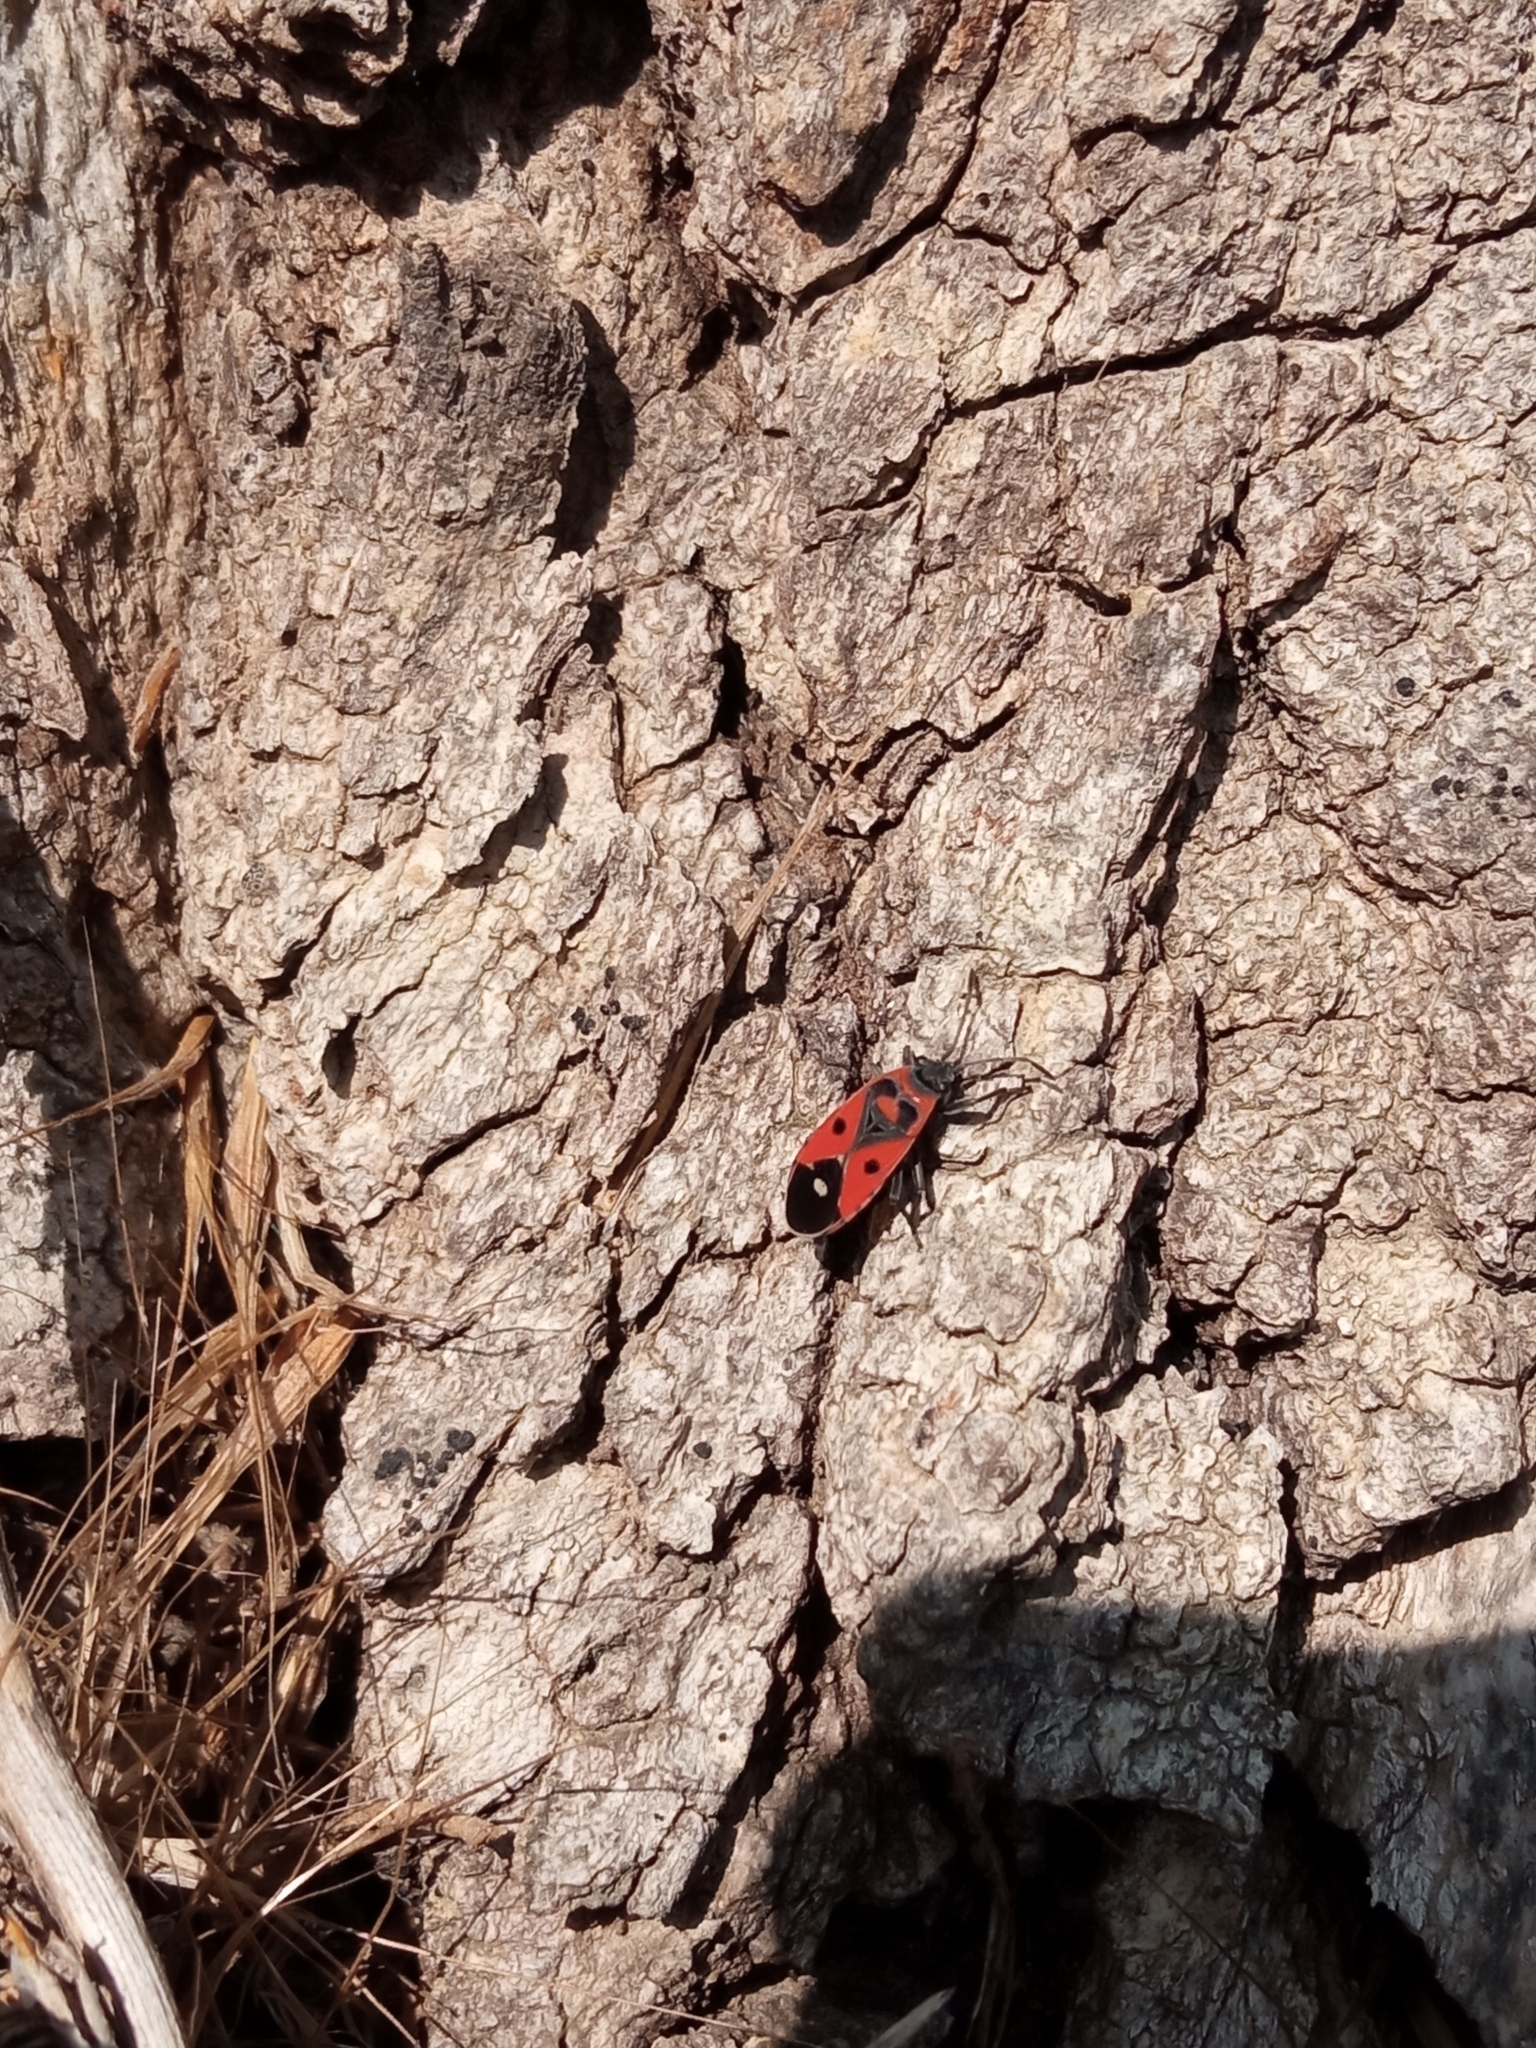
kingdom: Animalia
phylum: Arthropoda
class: Insecta
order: Hemiptera
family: Lygaeidae
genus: Melanocoryphus
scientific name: Melanocoryphus albomaculatus
